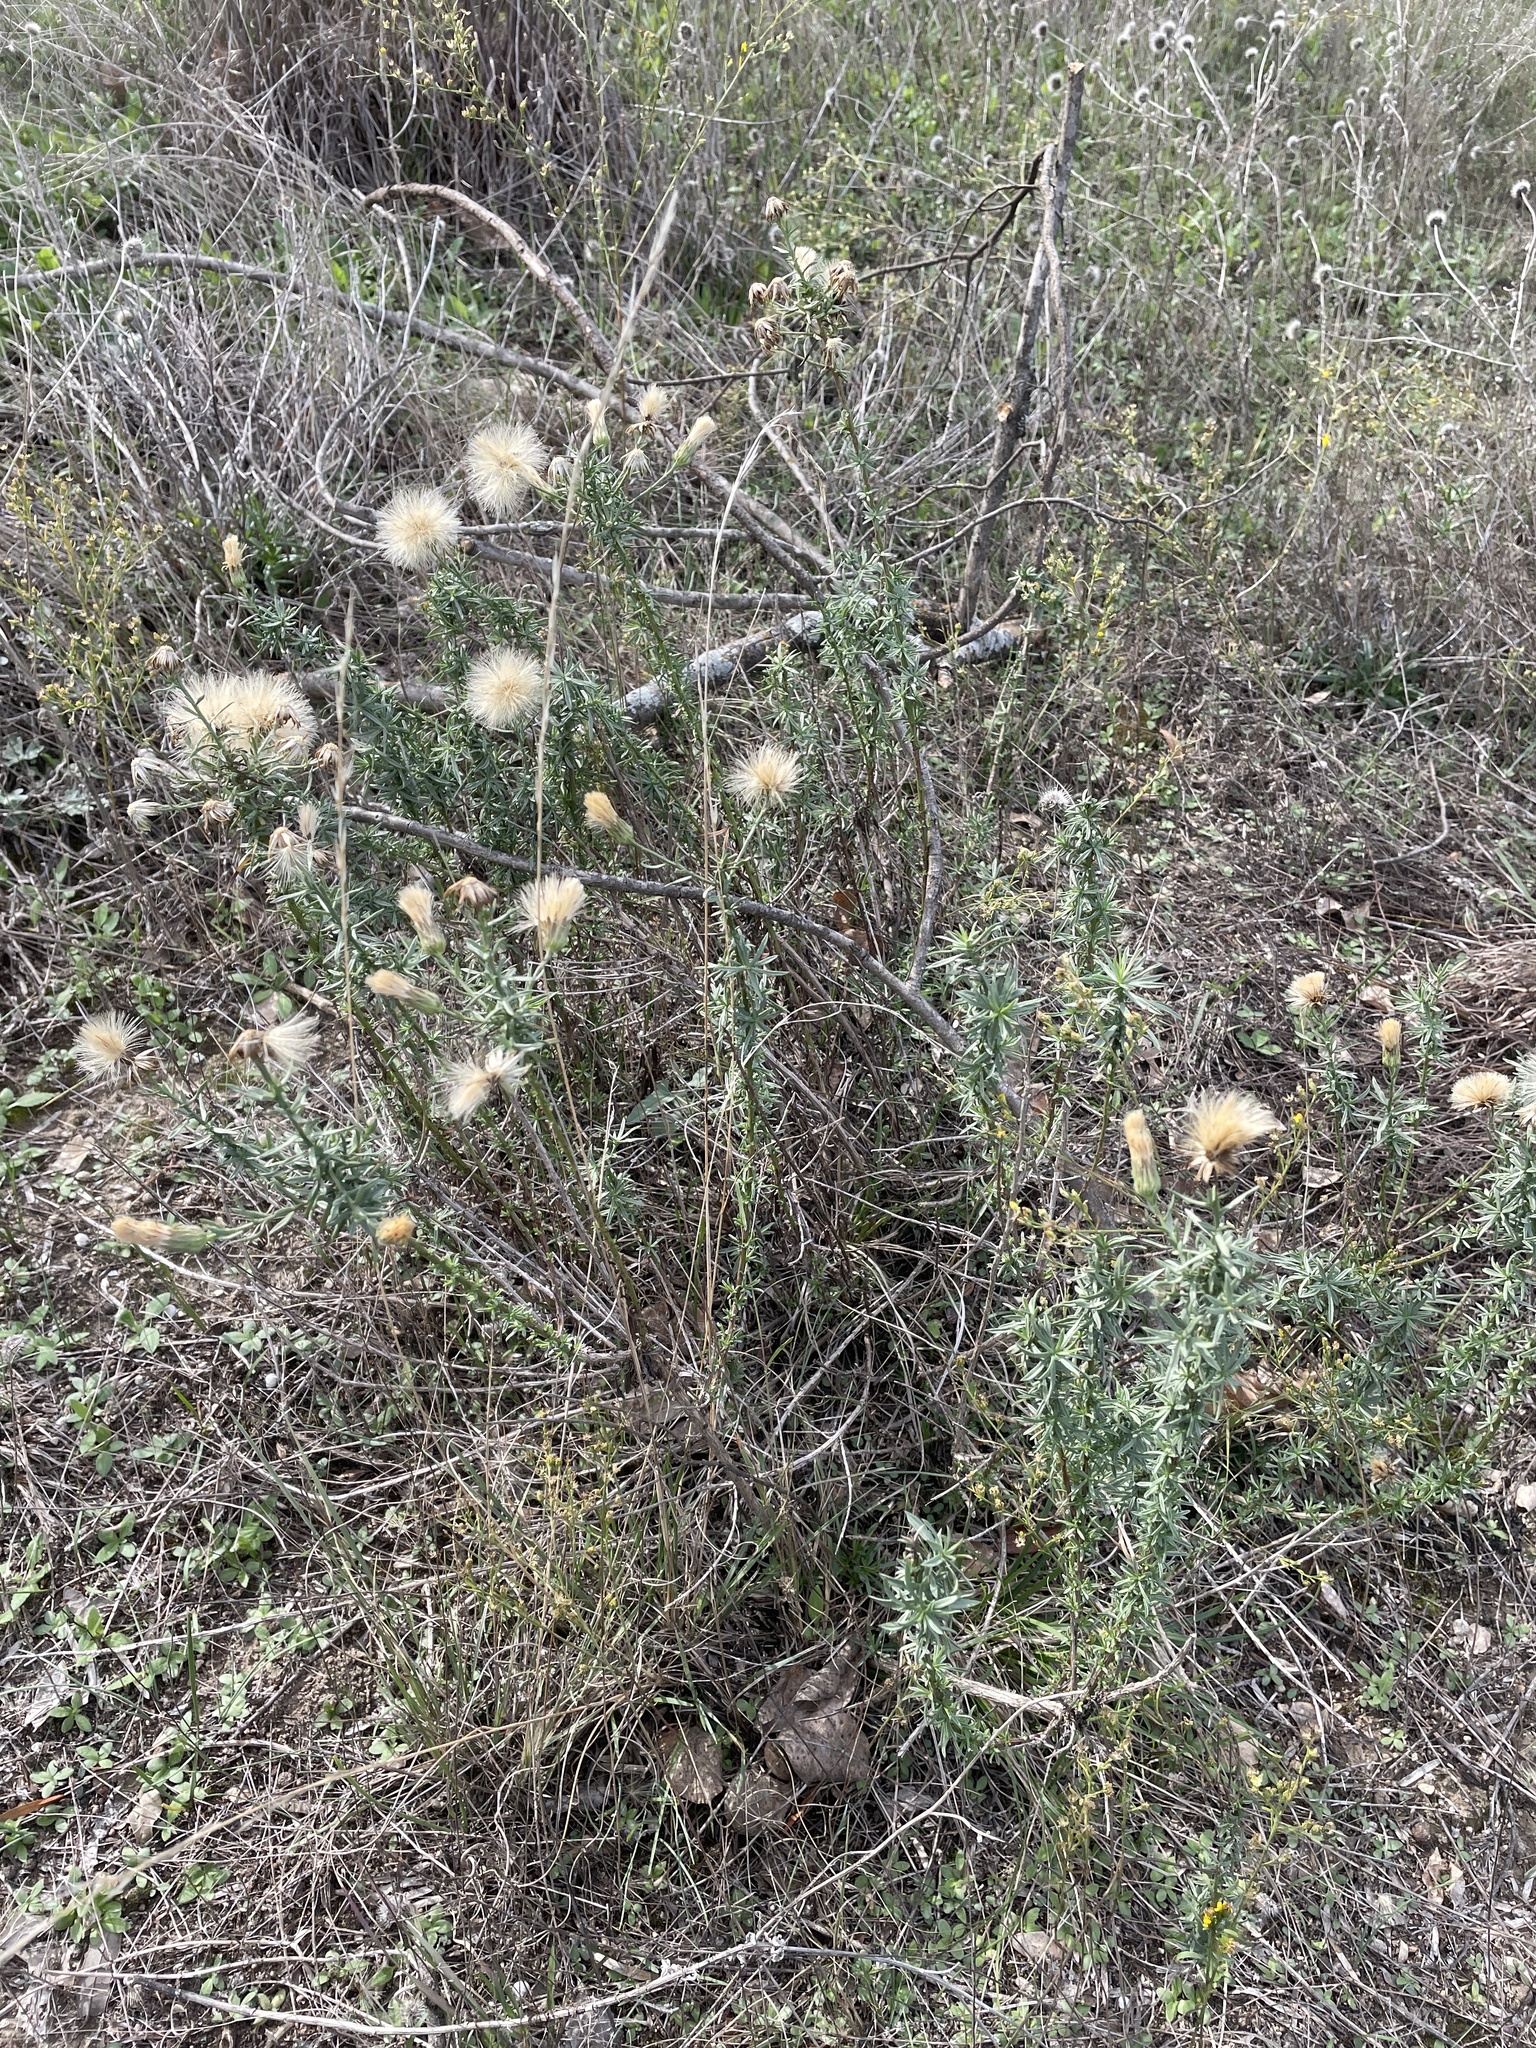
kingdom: Plantae
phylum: Tracheophyta
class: Magnoliopsida
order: Asterales
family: Asteraceae
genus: Baccharis
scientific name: Baccharis texana
